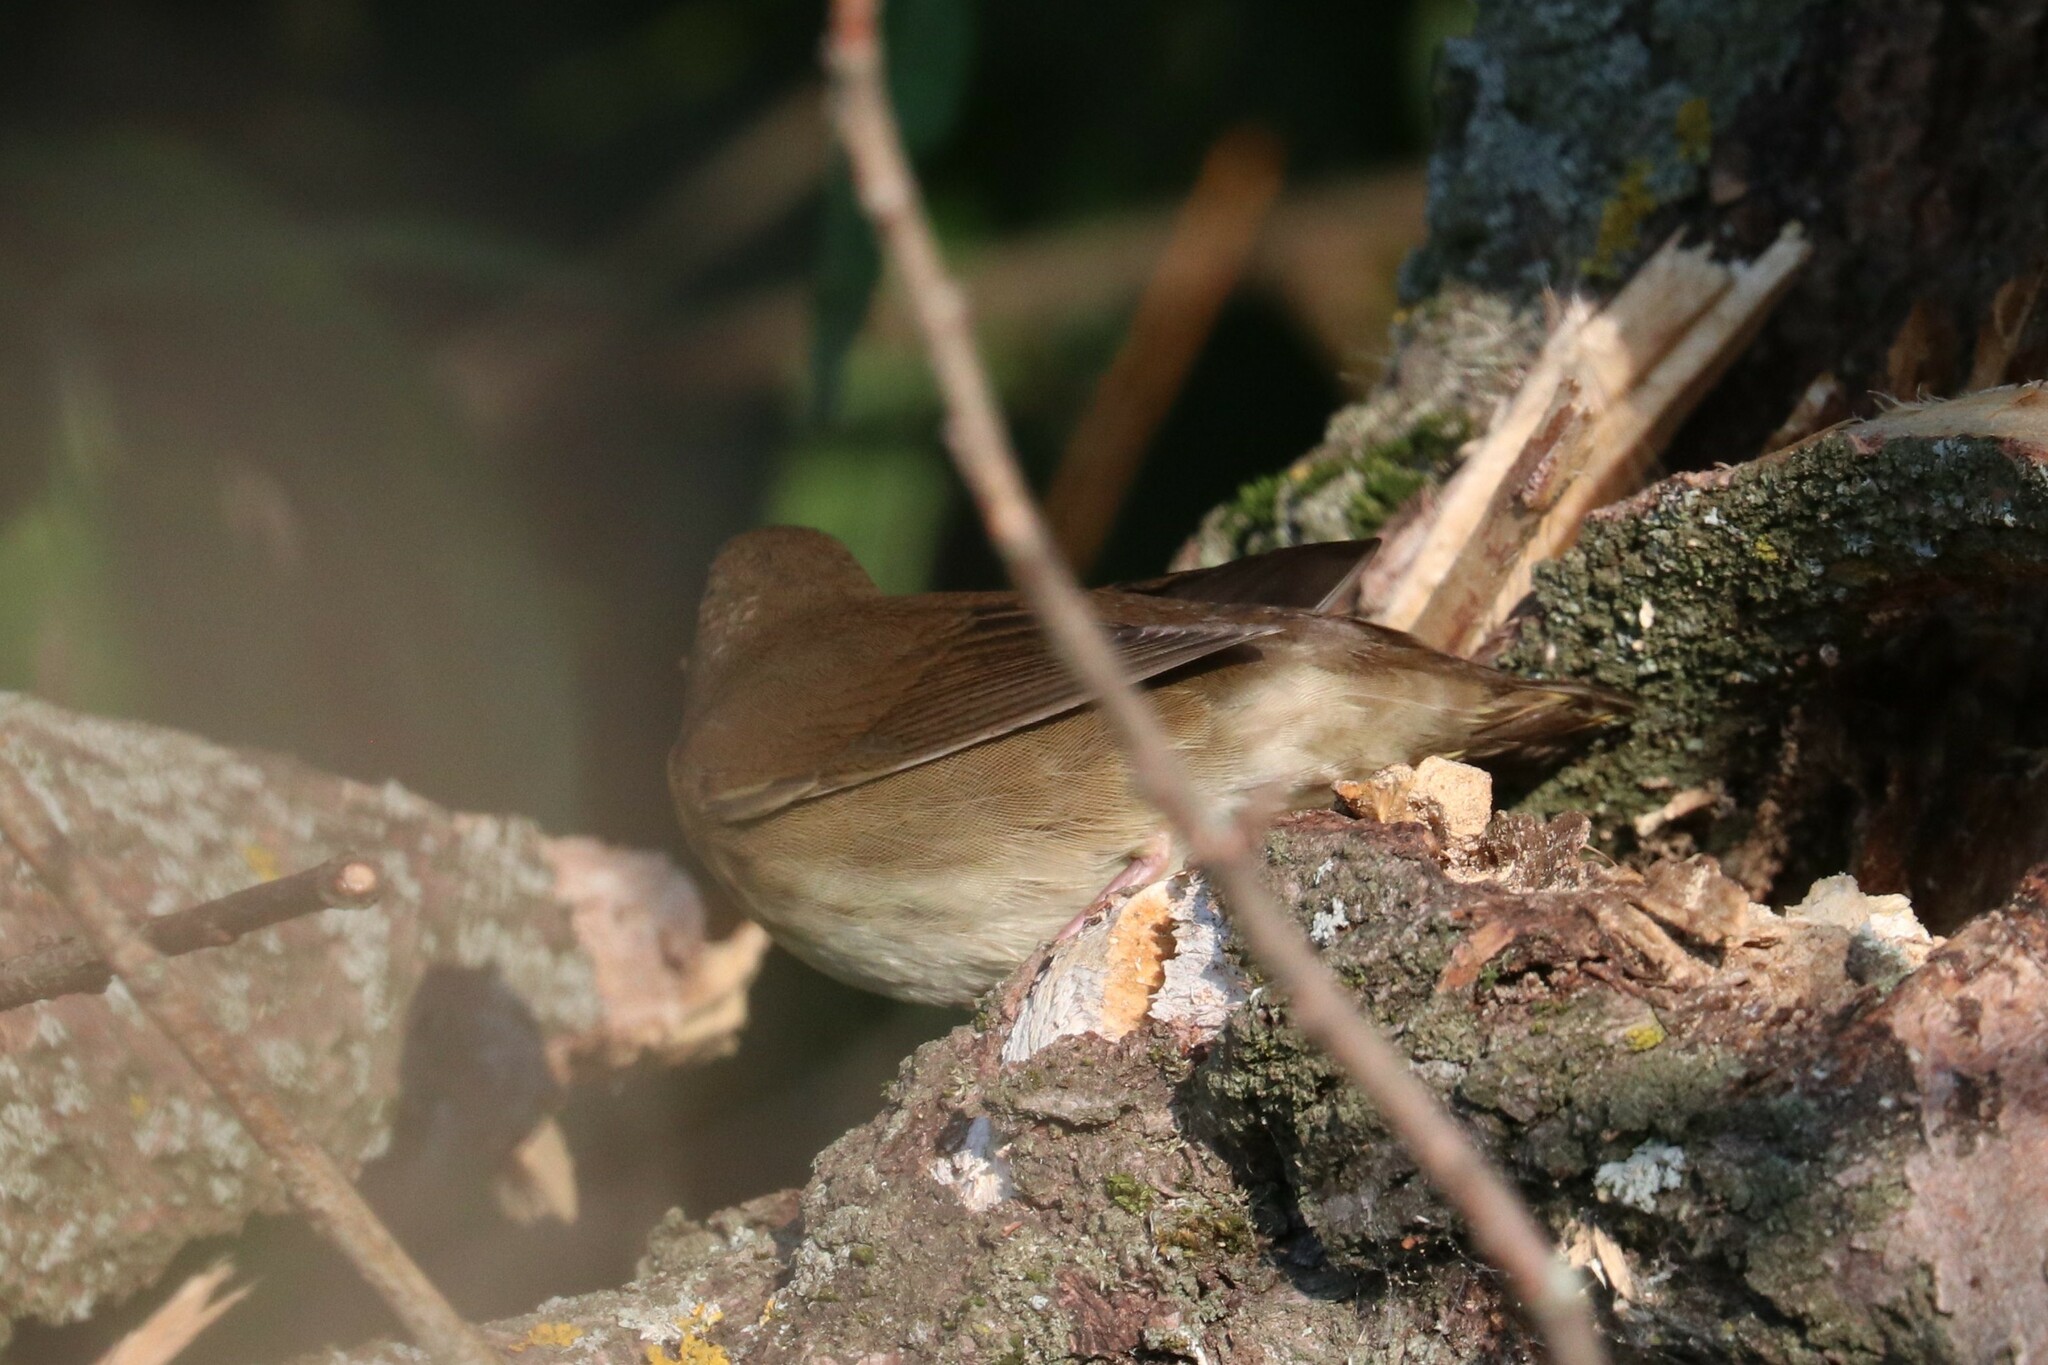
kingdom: Animalia
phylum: Chordata
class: Aves
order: Passeriformes
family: Locustellidae
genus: Locustella
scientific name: Locustella fluviatilis
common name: River warbler
